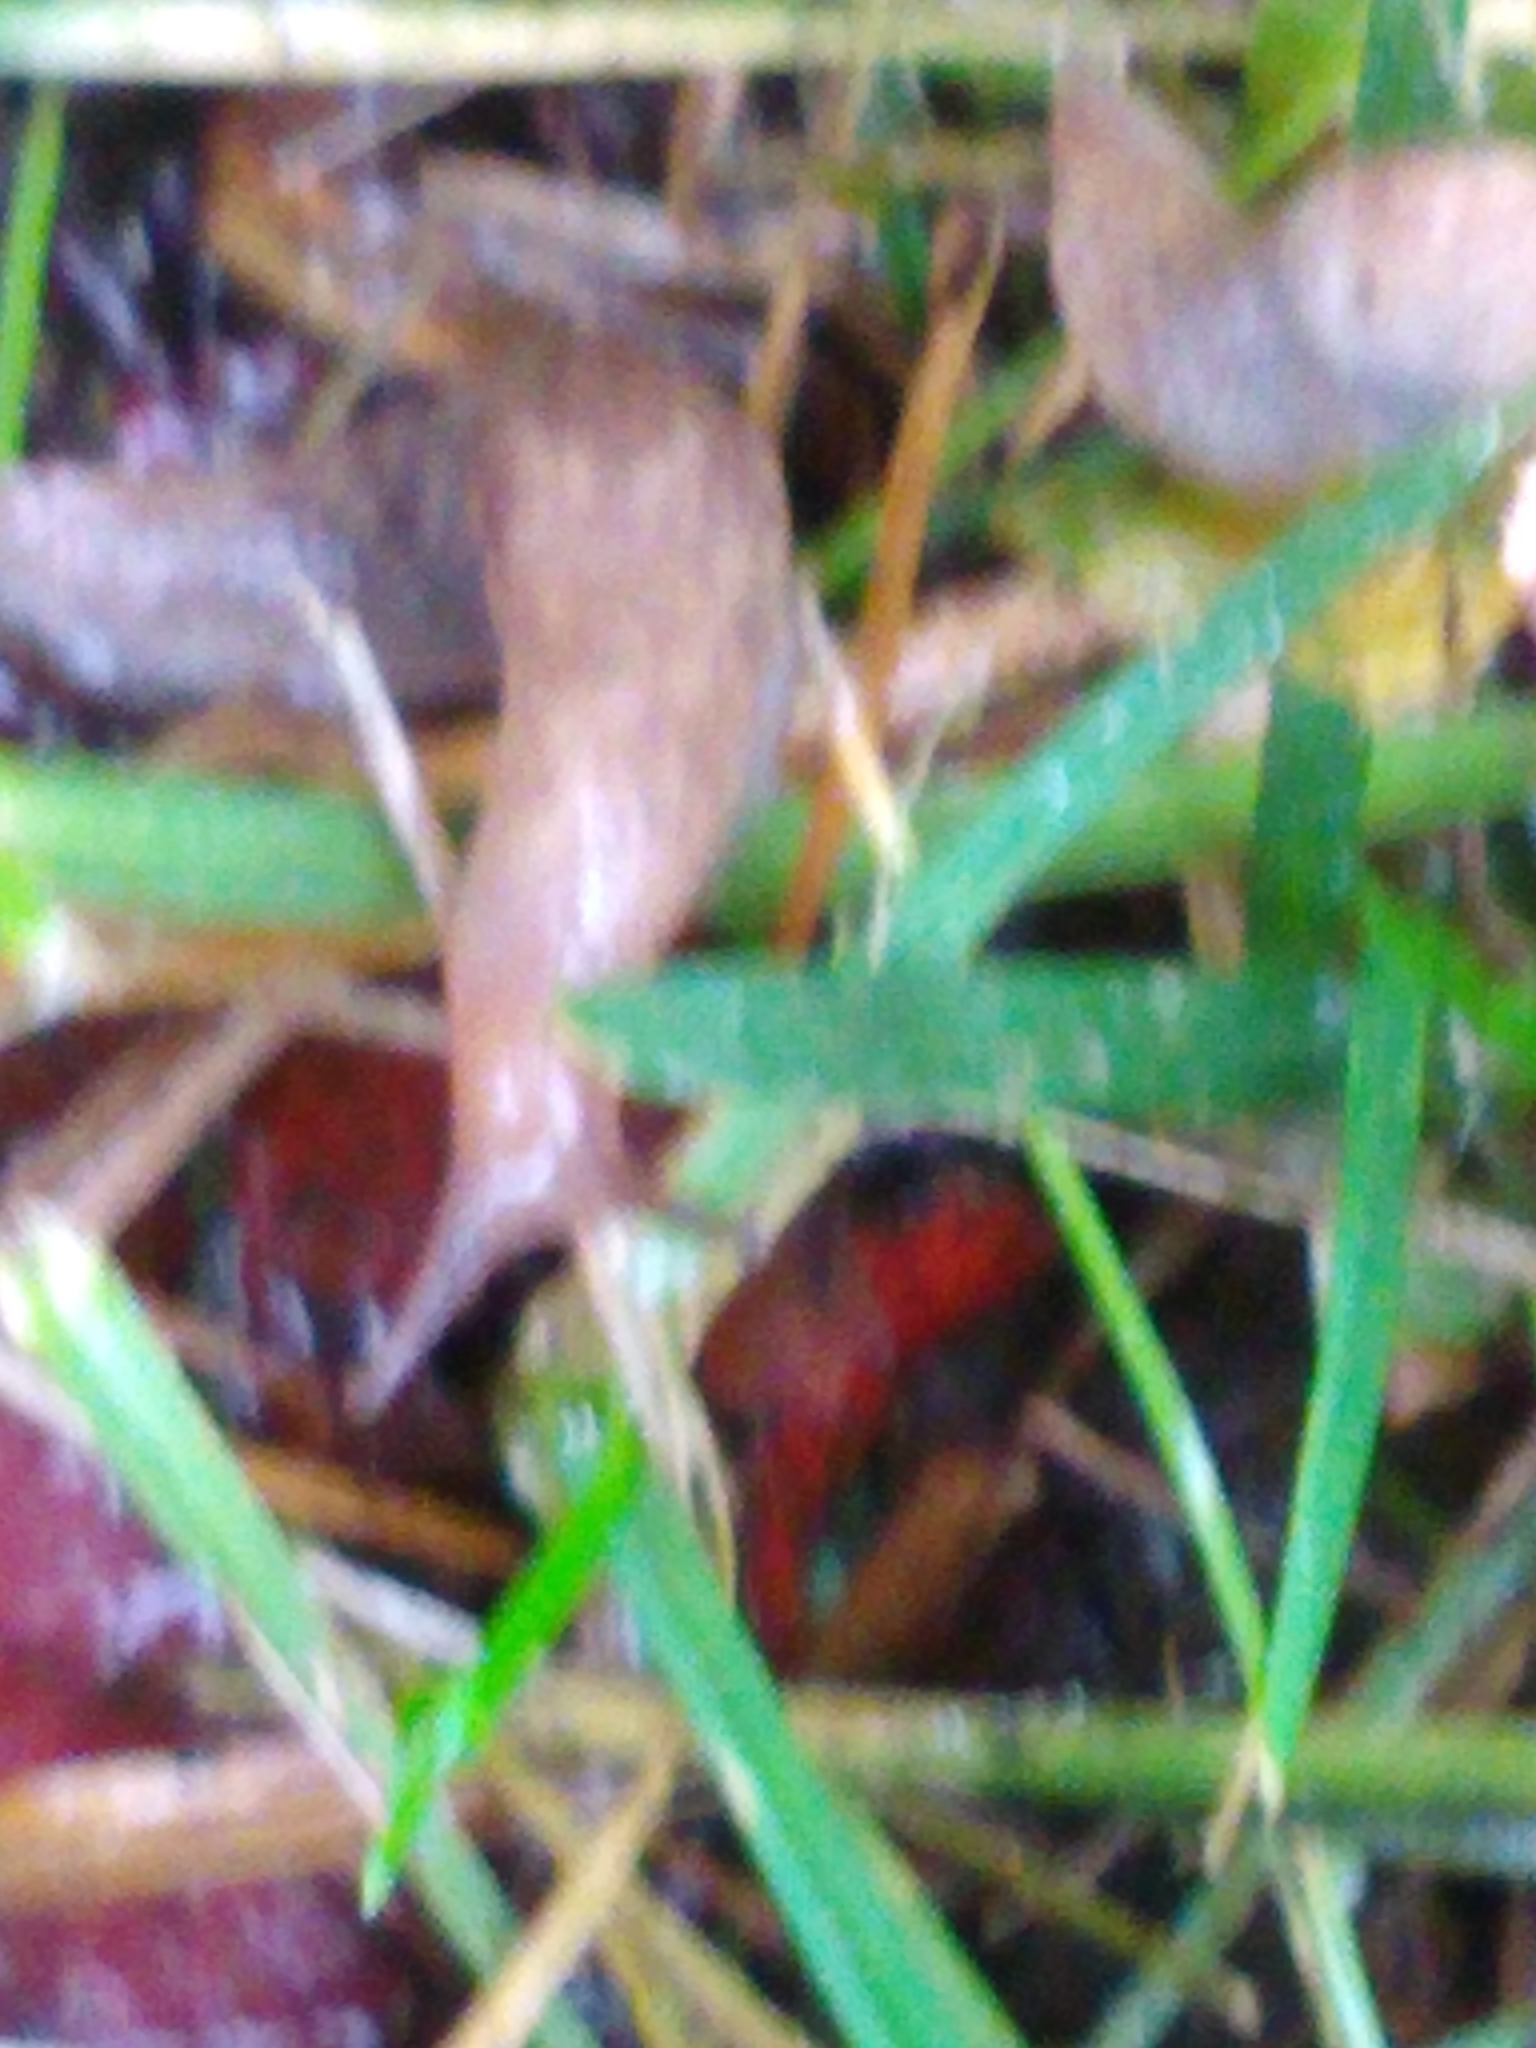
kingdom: Animalia
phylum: Mollusca
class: Gastropoda
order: Stylommatophora
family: Agriolimacidae
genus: Deroceras
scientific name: Deroceras reticulatum
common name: Gray field slug
